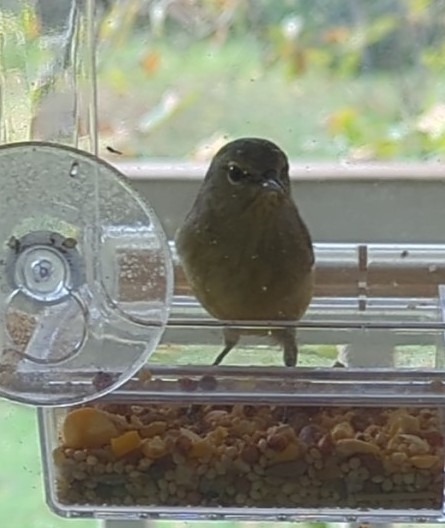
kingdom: Animalia
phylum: Chordata
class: Aves
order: Passeriformes
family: Parulidae
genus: Leiothlypis
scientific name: Leiothlypis celata
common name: Orange-crowned warbler
